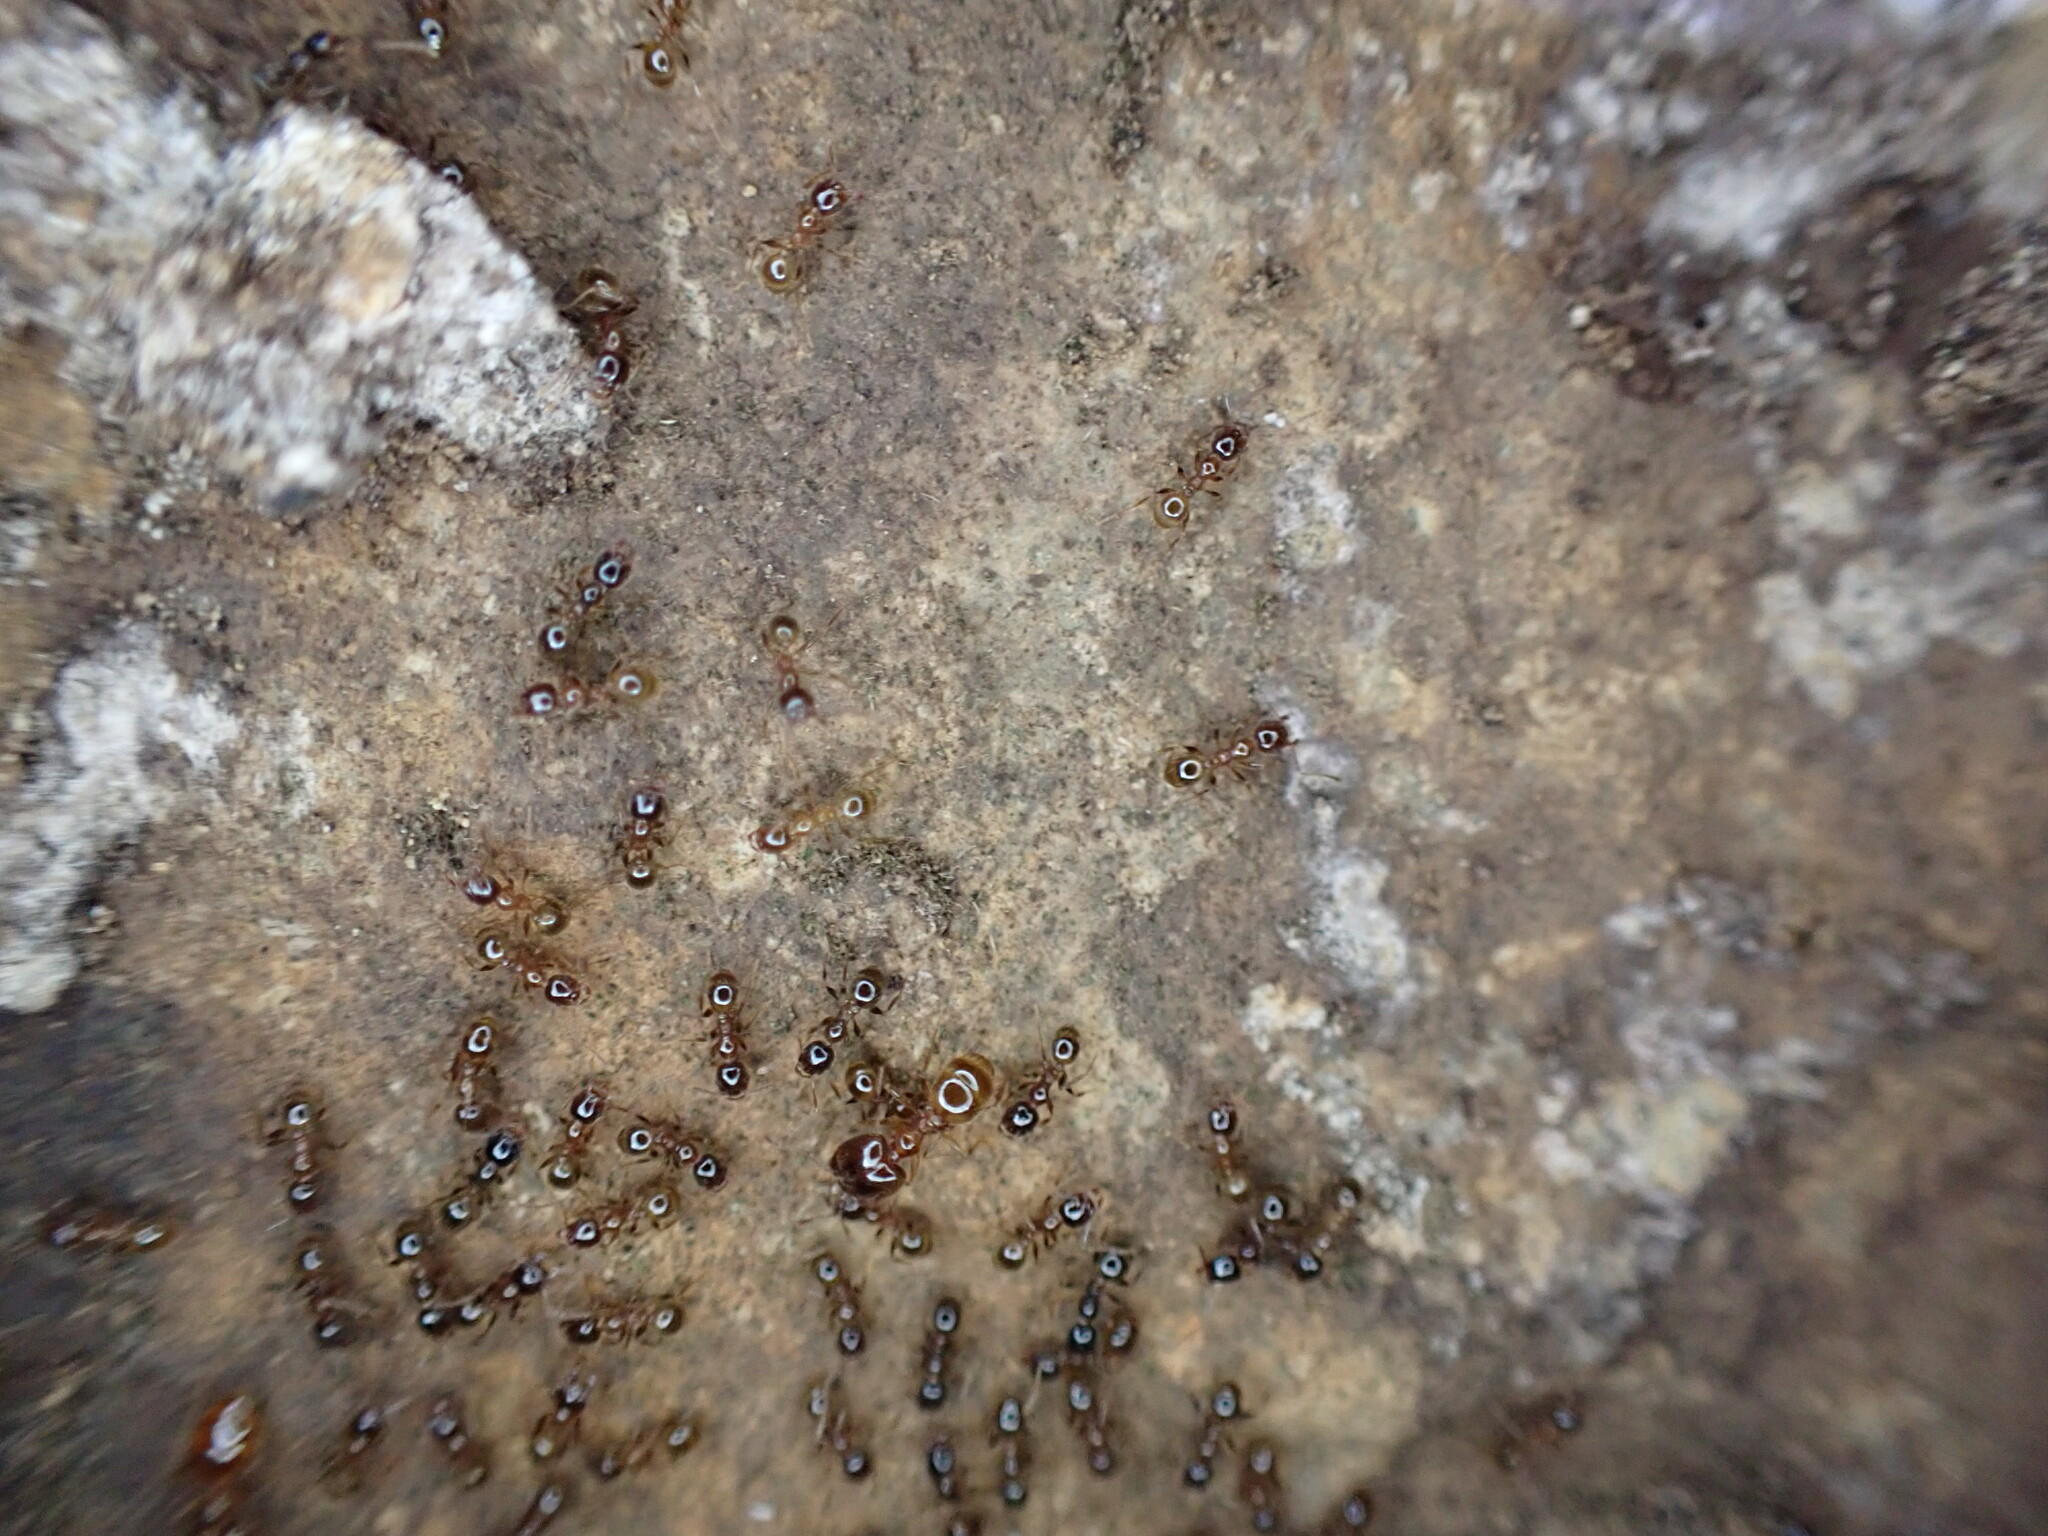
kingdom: Animalia
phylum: Arthropoda
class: Insecta
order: Hymenoptera
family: Formicidae
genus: Pheidole
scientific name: Pheidole pallidula
